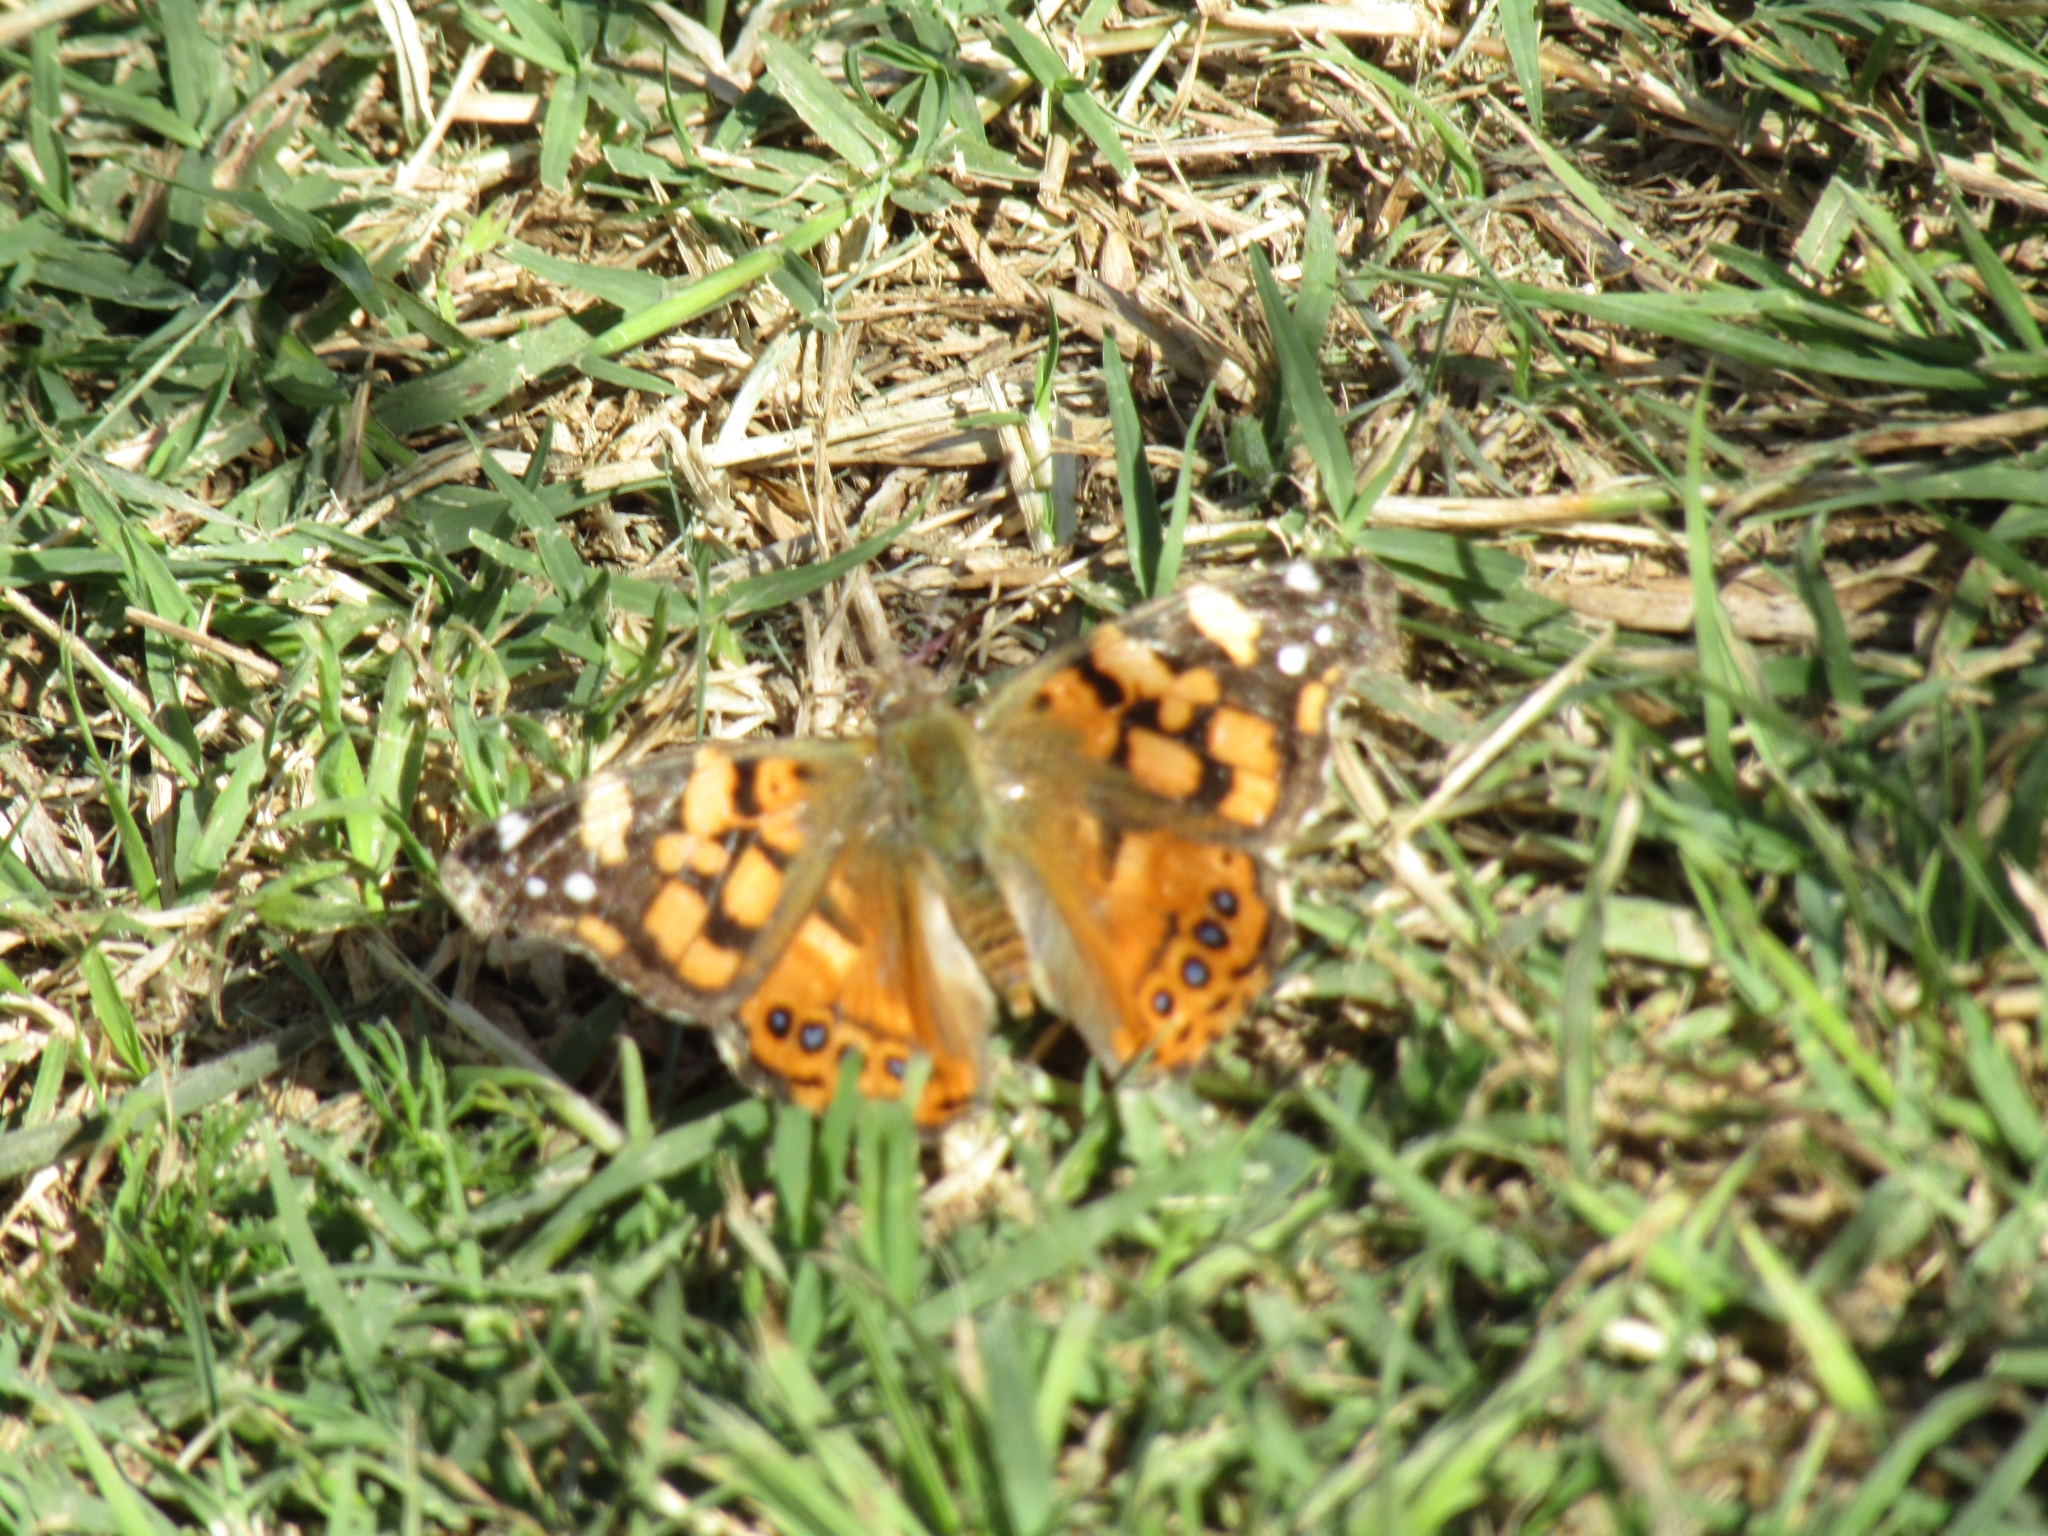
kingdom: Animalia
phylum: Arthropoda
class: Insecta
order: Lepidoptera
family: Nymphalidae
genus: Vanessa
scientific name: Vanessa carye
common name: Subtropical lady
